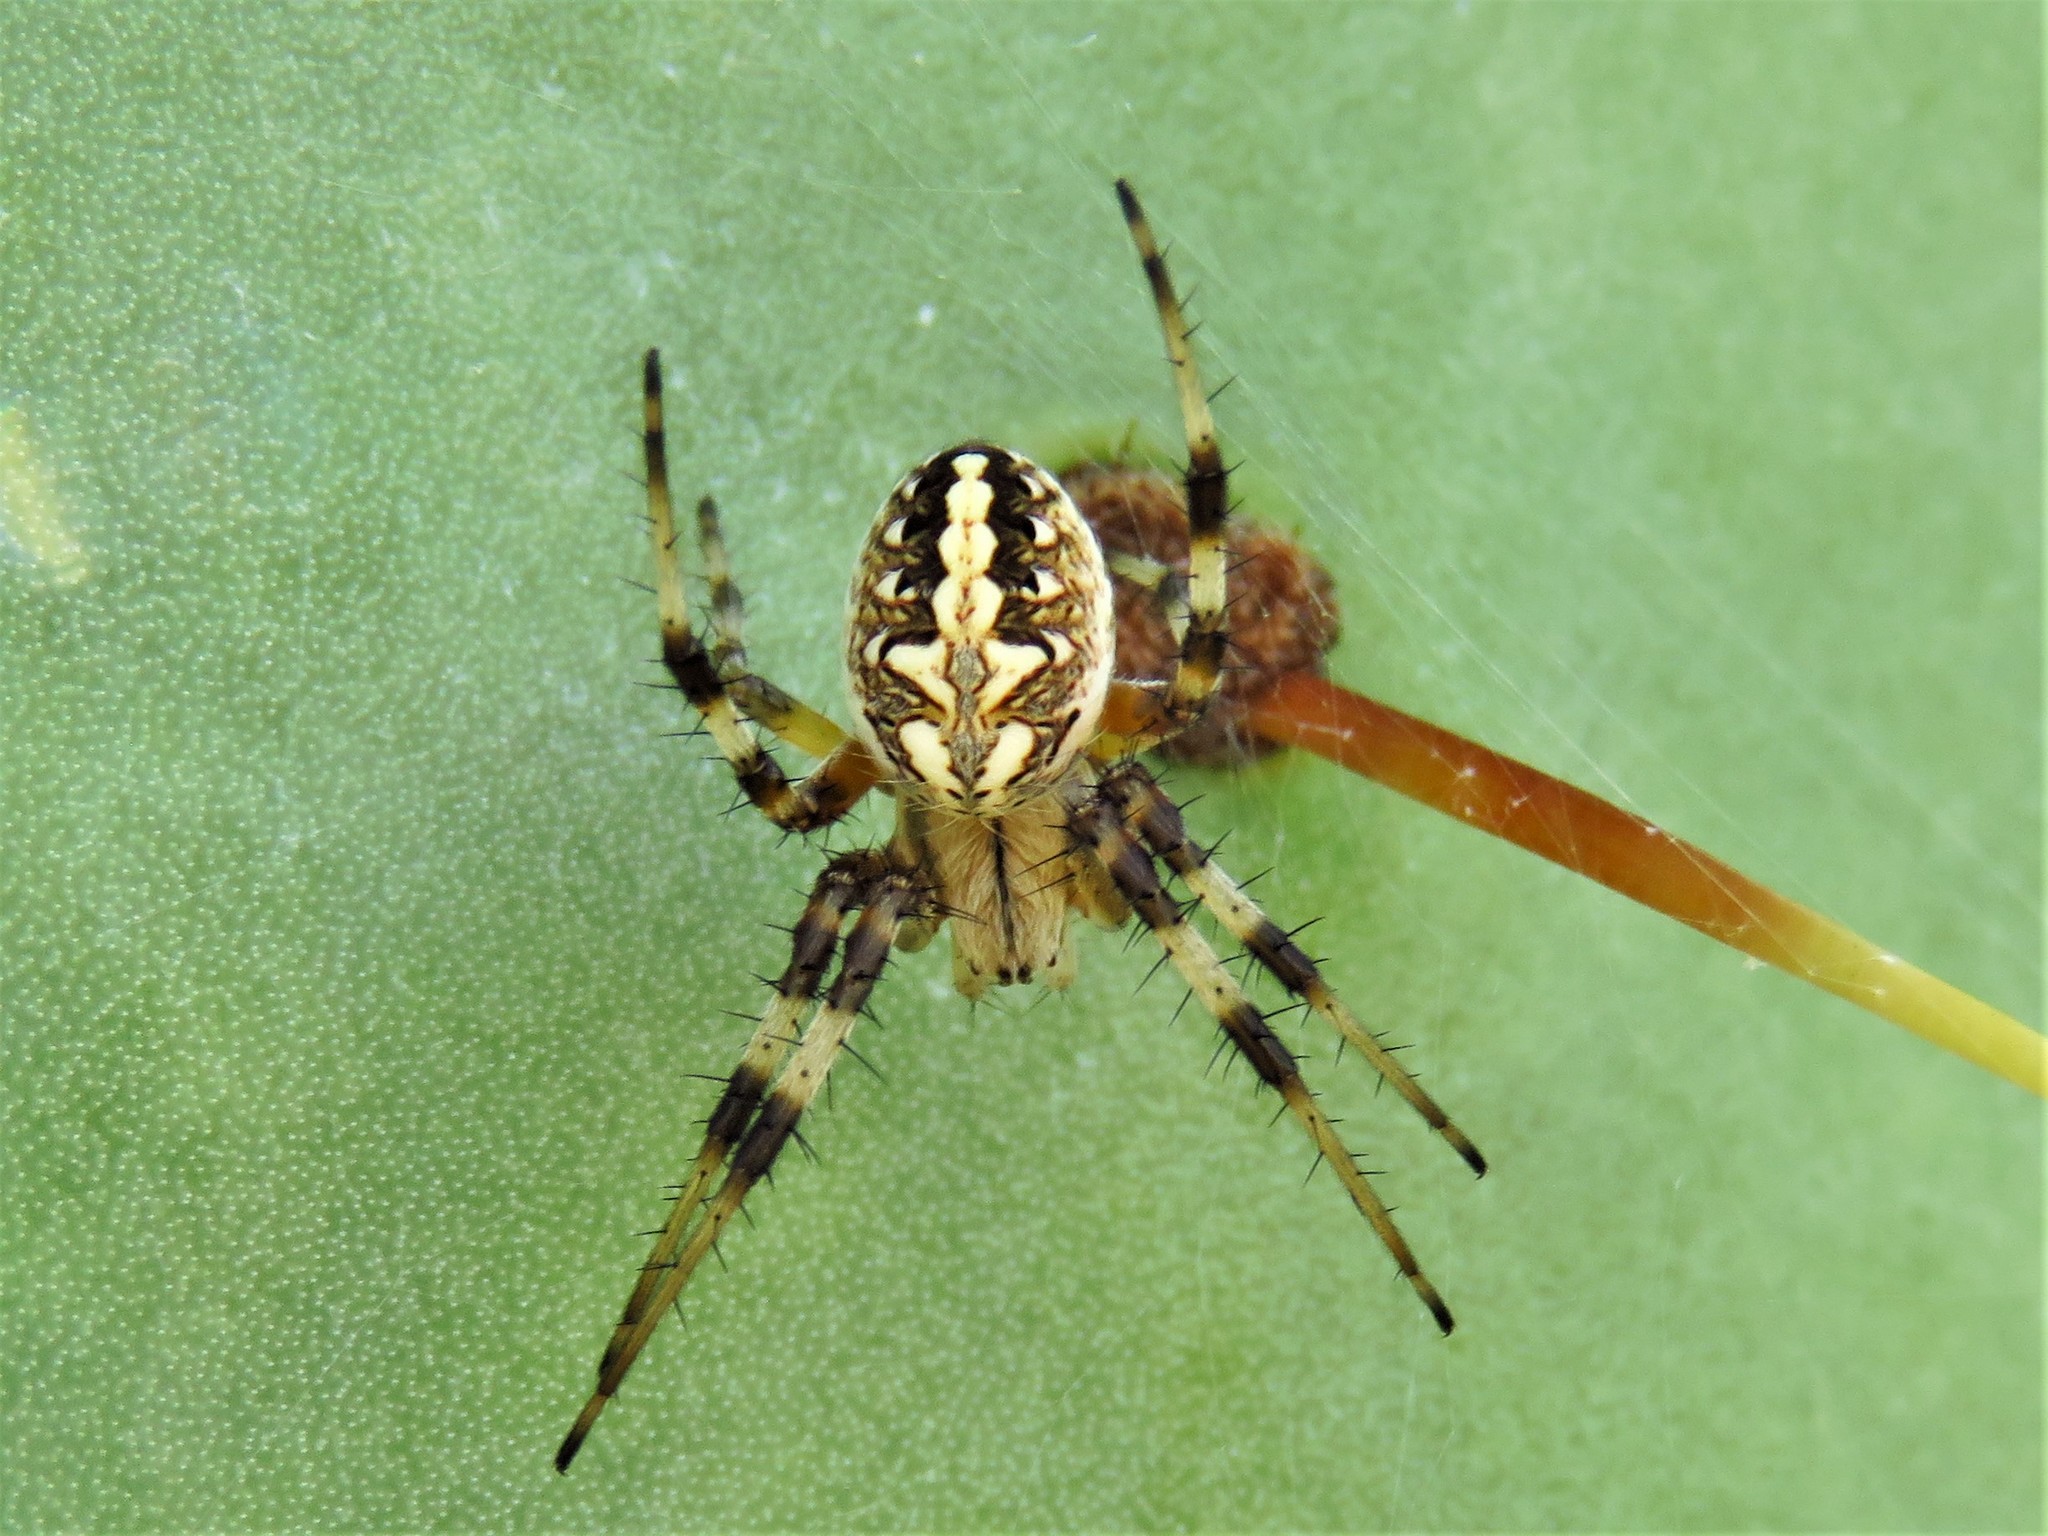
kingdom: Animalia
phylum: Arthropoda
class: Arachnida
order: Araneae
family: Araneidae
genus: Neoscona
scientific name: Neoscona oaxacensis
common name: Orb weavers
